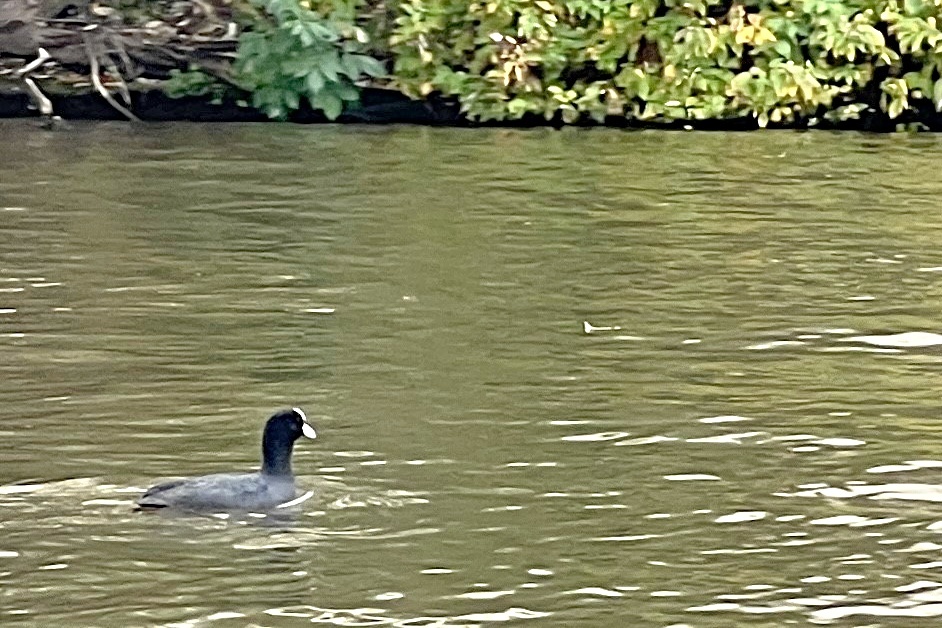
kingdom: Animalia
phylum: Chordata
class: Aves
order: Gruiformes
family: Rallidae
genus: Fulica
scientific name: Fulica atra
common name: Eurasian coot
